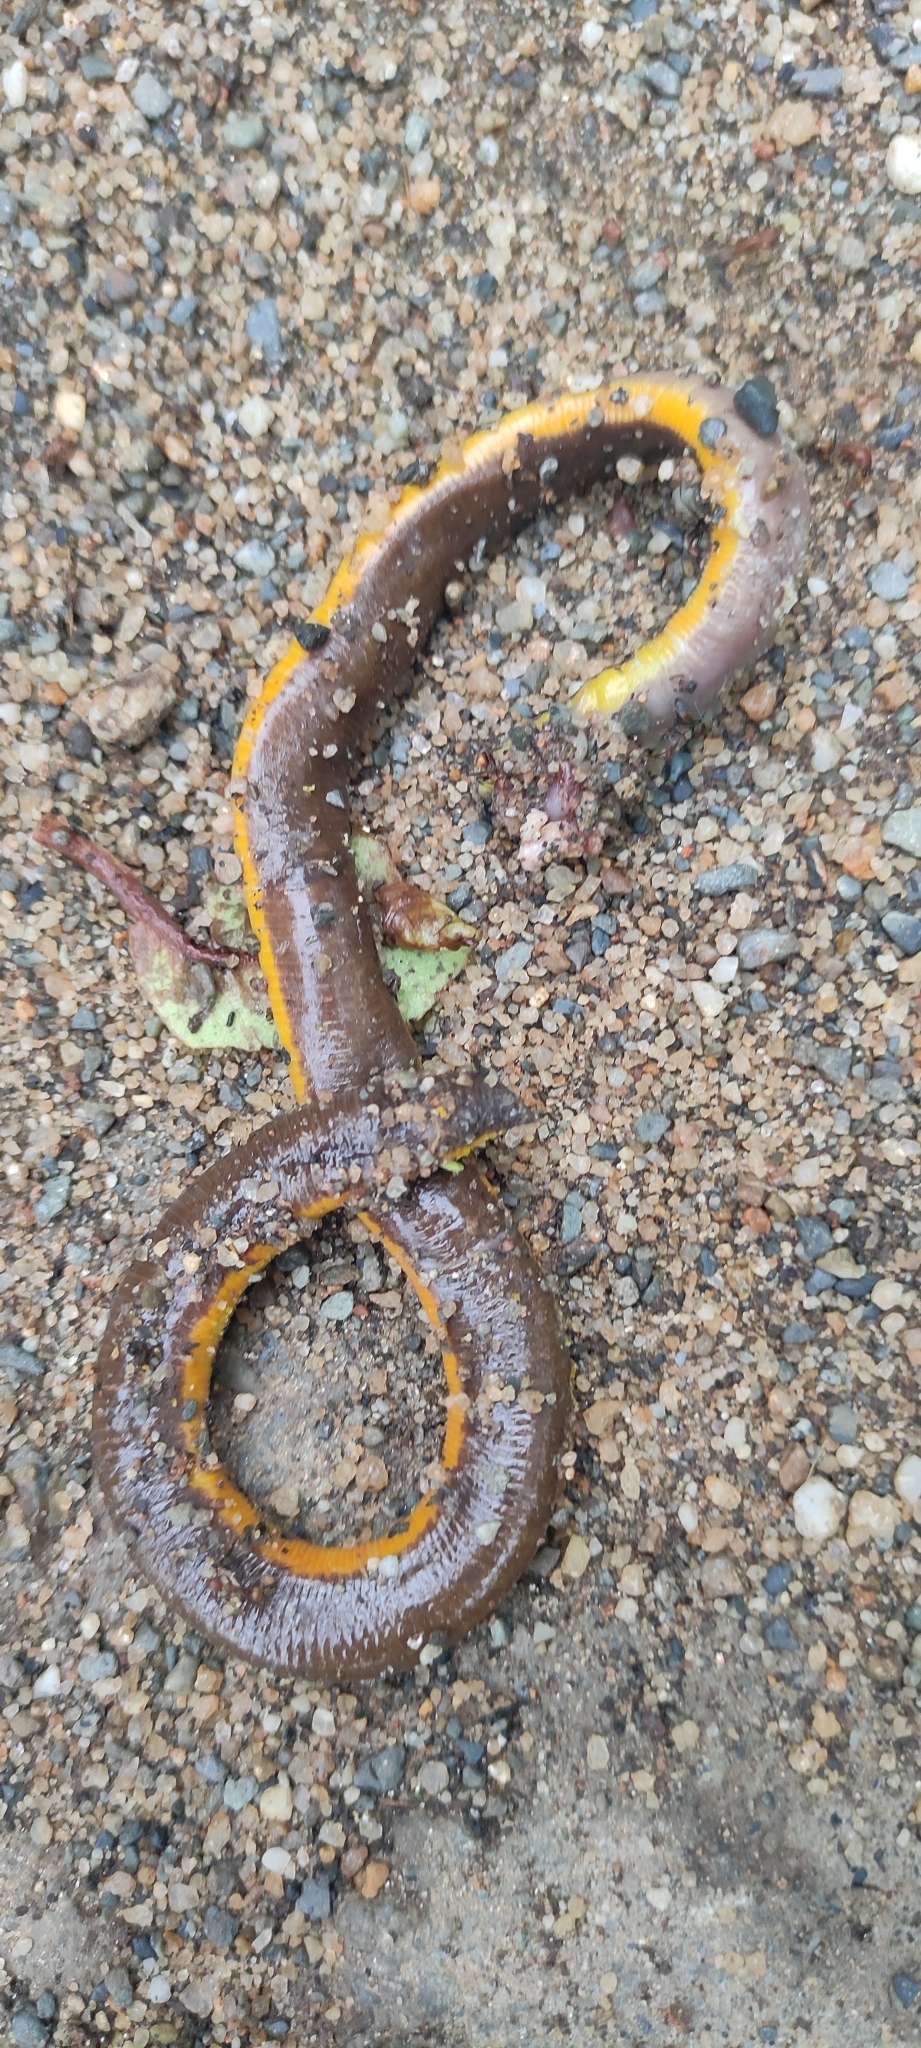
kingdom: Animalia
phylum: Chordata
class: Amphibia
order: Gymnophiona
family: Ichthyophiidae
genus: Ichthyophis
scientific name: Ichthyophis garoensis
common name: Garo hills caecilian
